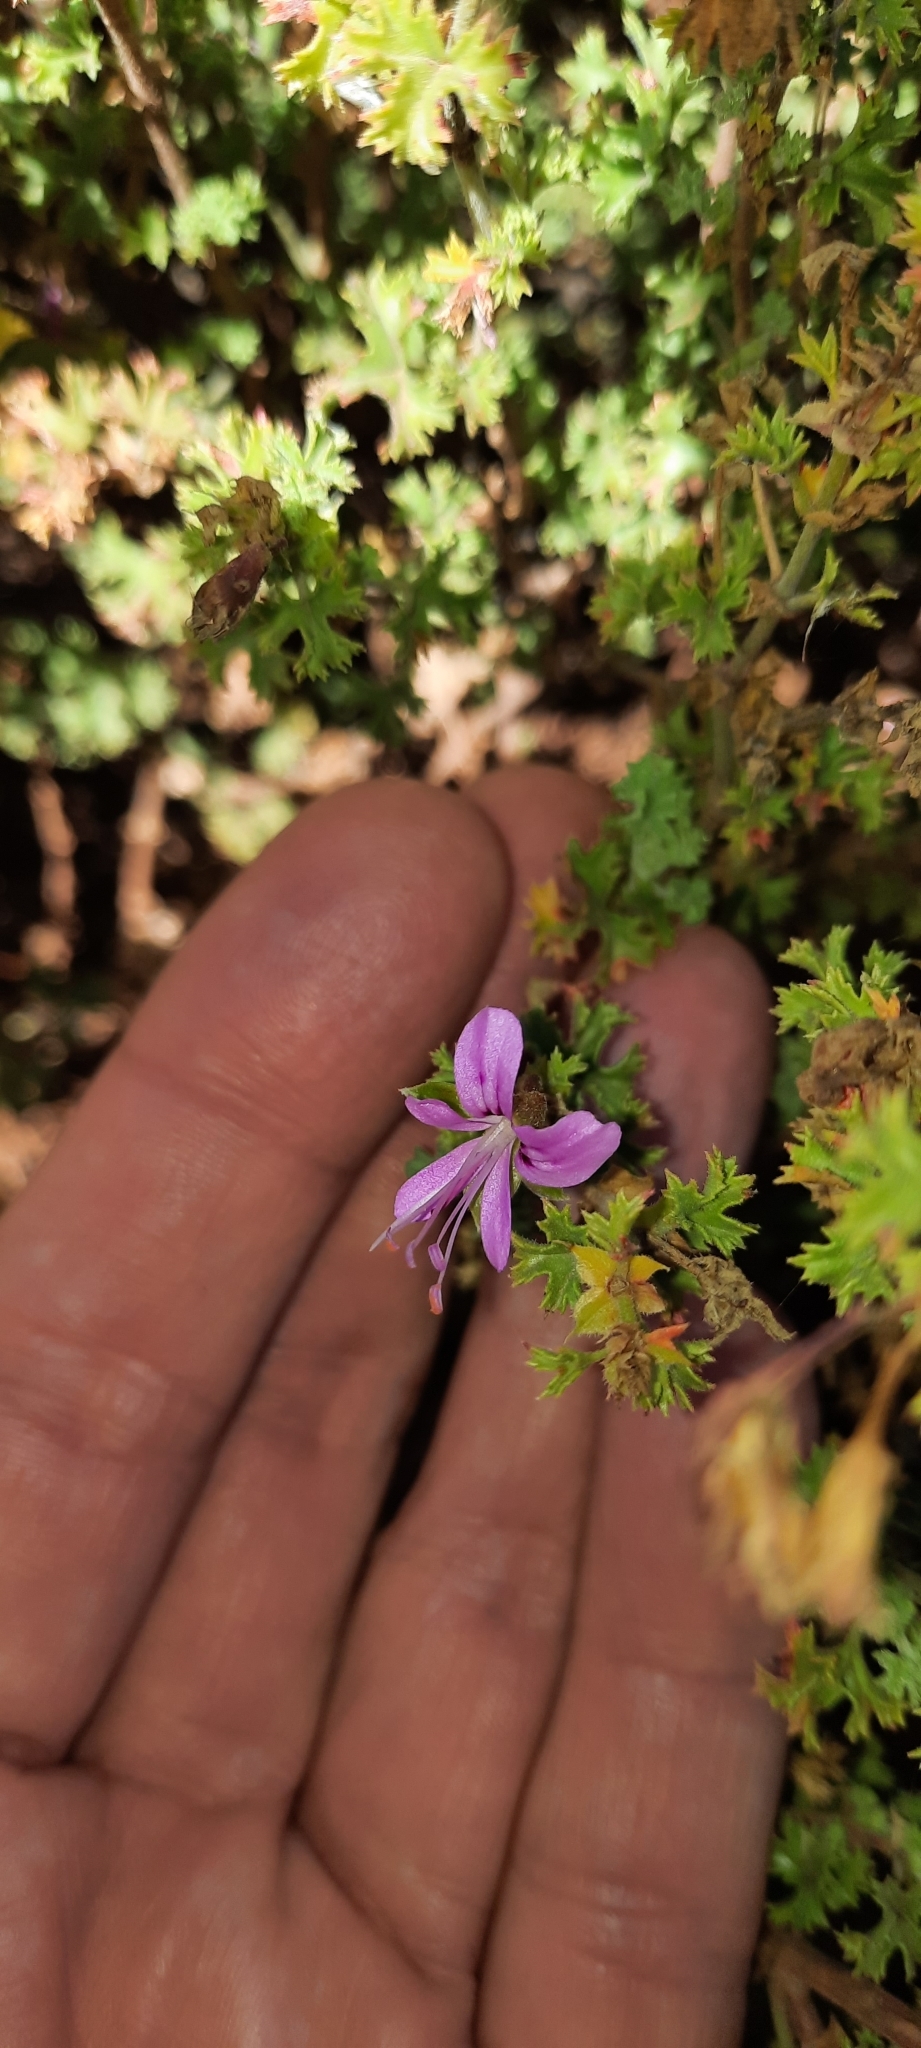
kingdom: Plantae
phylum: Tracheophyta
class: Magnoliopsida
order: Geraniales
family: Geraniaceae
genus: Pelargonium
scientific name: Pelargonium englerianum
